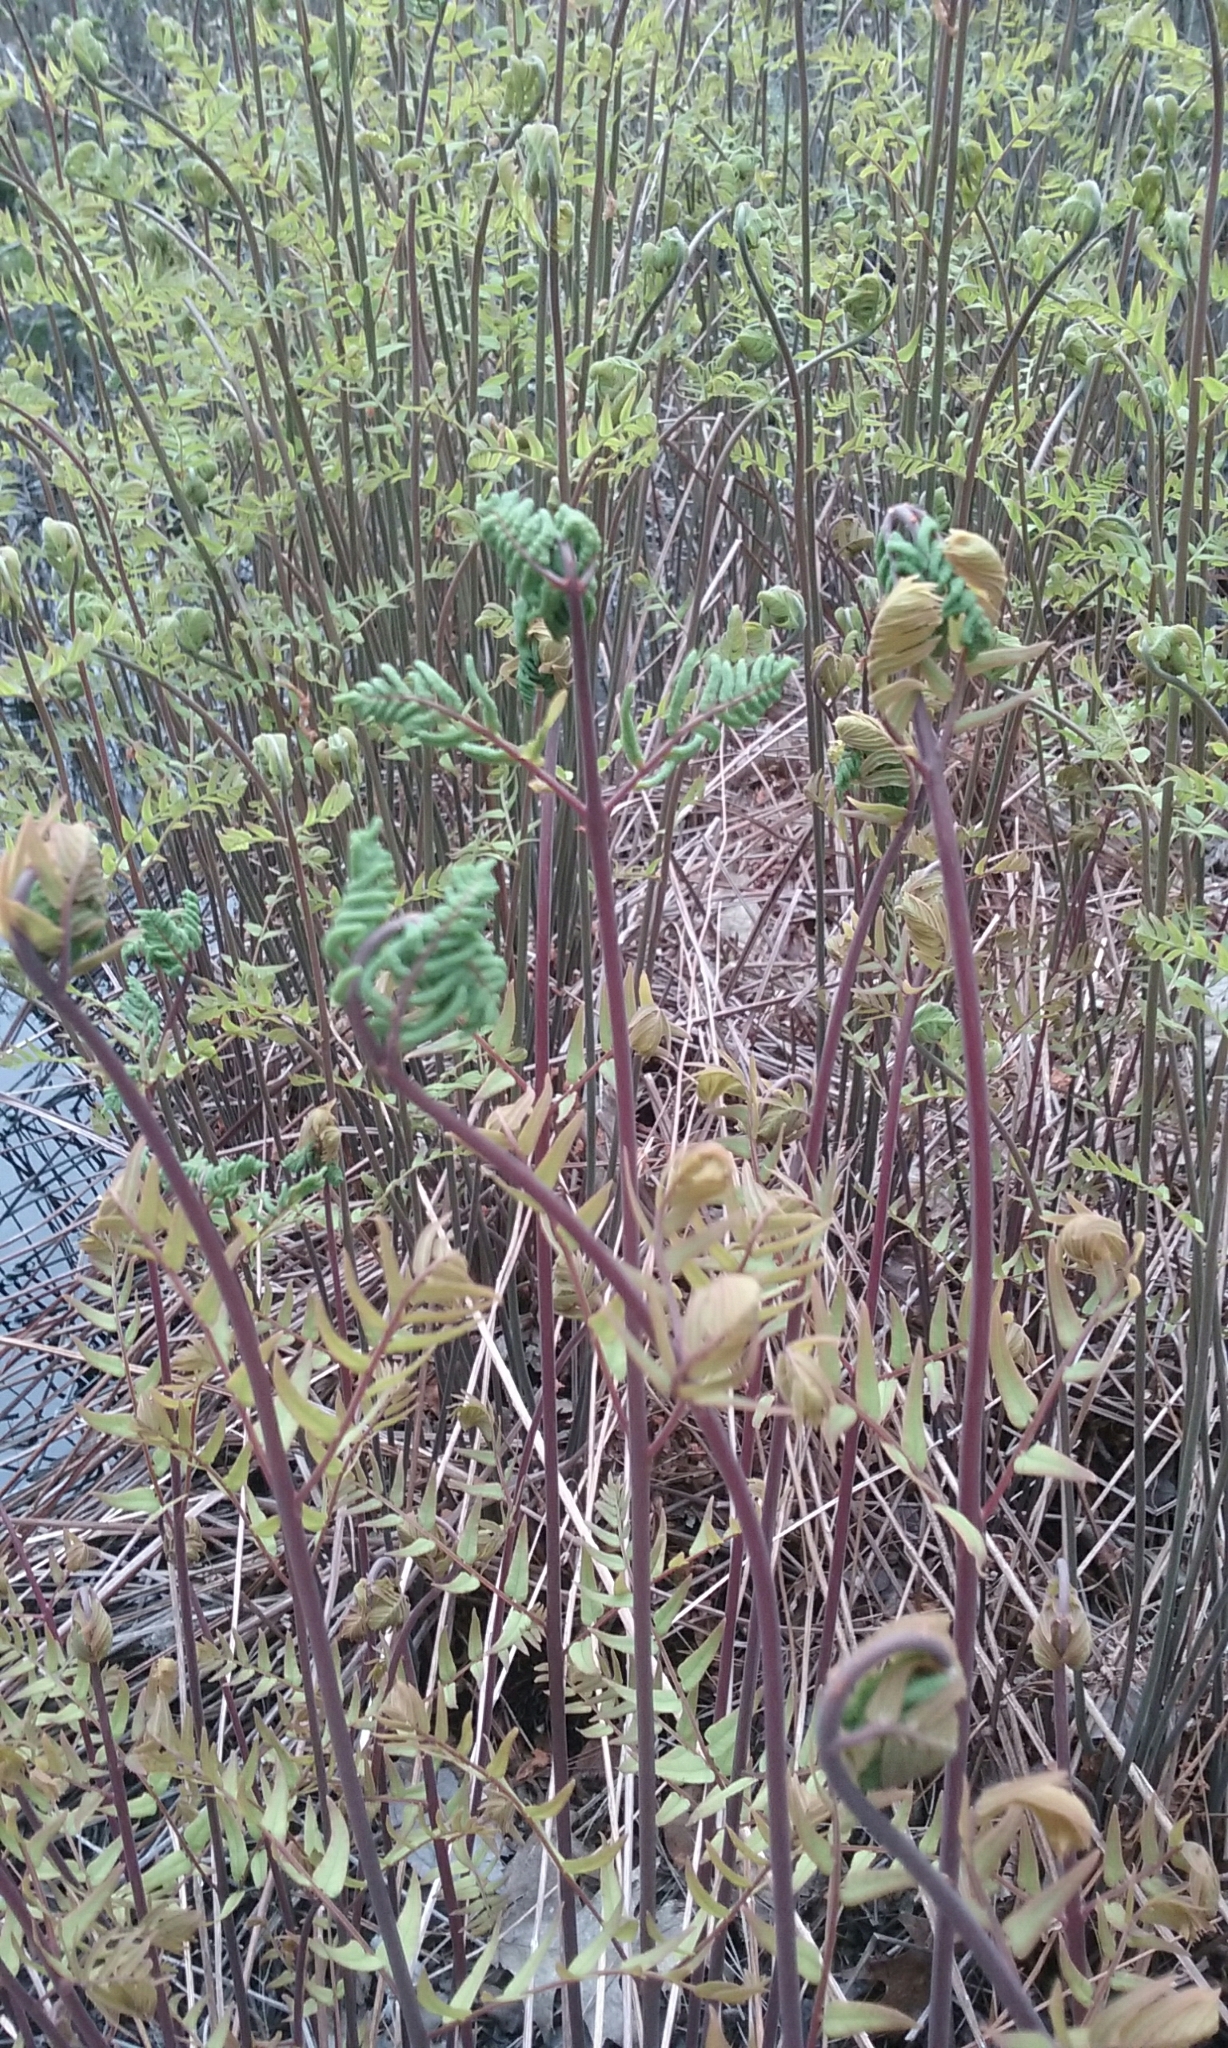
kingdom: Plantae
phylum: Tracheophyta
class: Polypodiopsida
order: Osmundales
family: Osmundaceae
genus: Osmunda
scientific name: Osmunda spectabilis
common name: American royal fern
